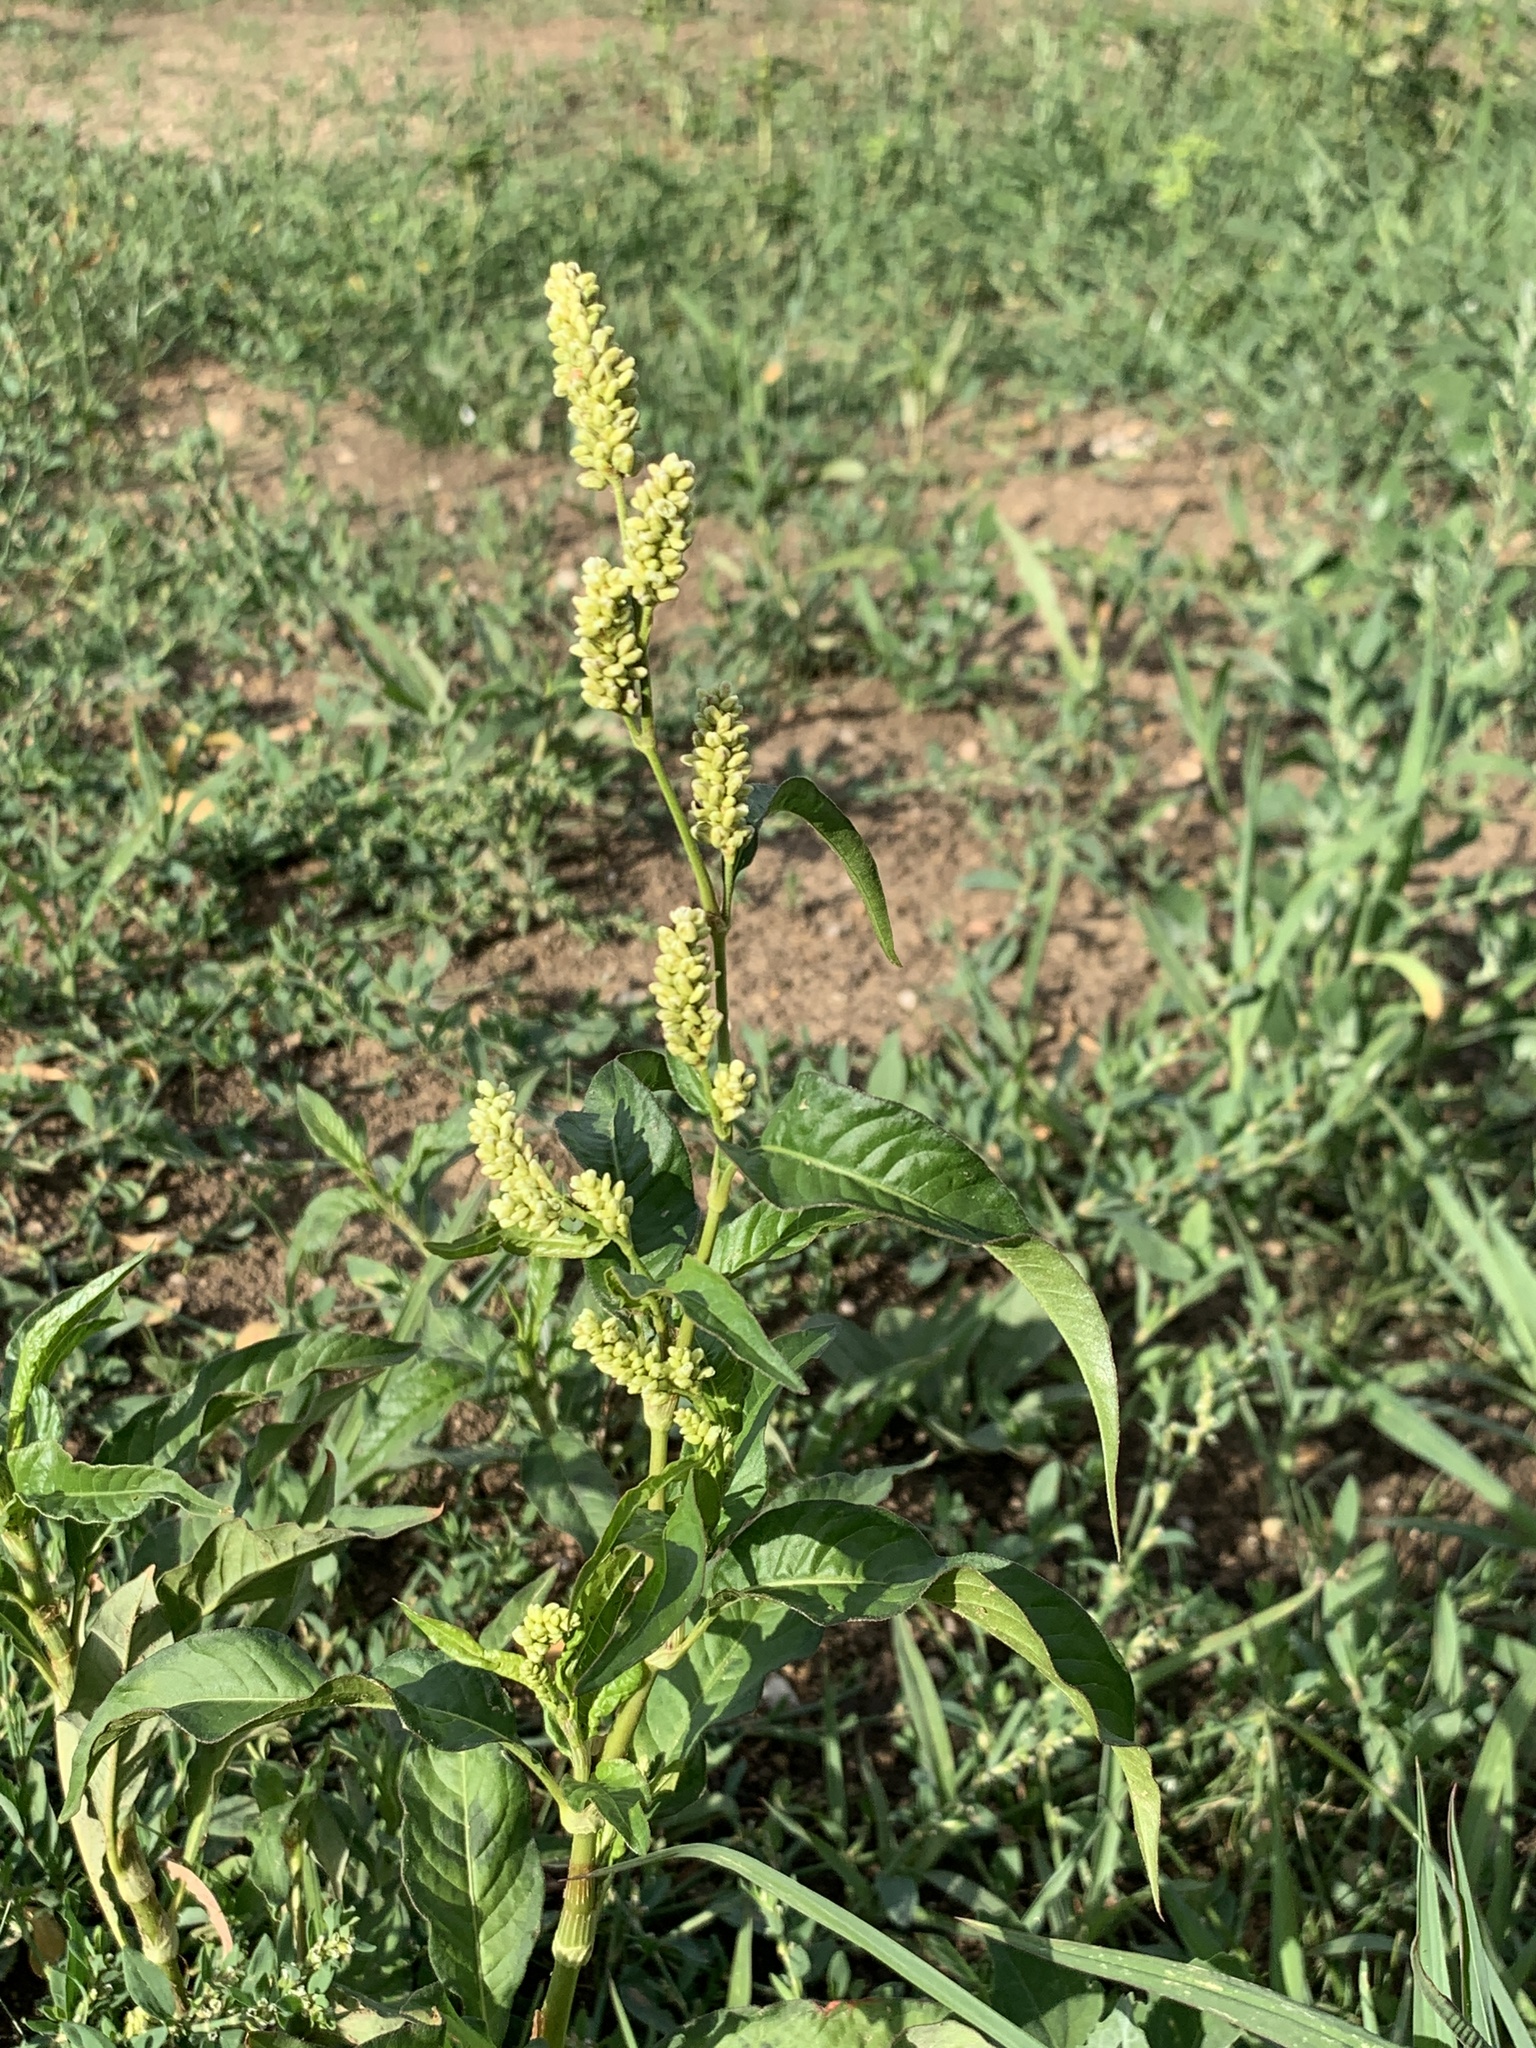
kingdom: Plantae
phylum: Tracheophyta
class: Magnoliopsida
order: Caryophyllales
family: Polygonaceae
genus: Persicaria
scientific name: Persicaria lapathifolia
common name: Curlytop knotweed
